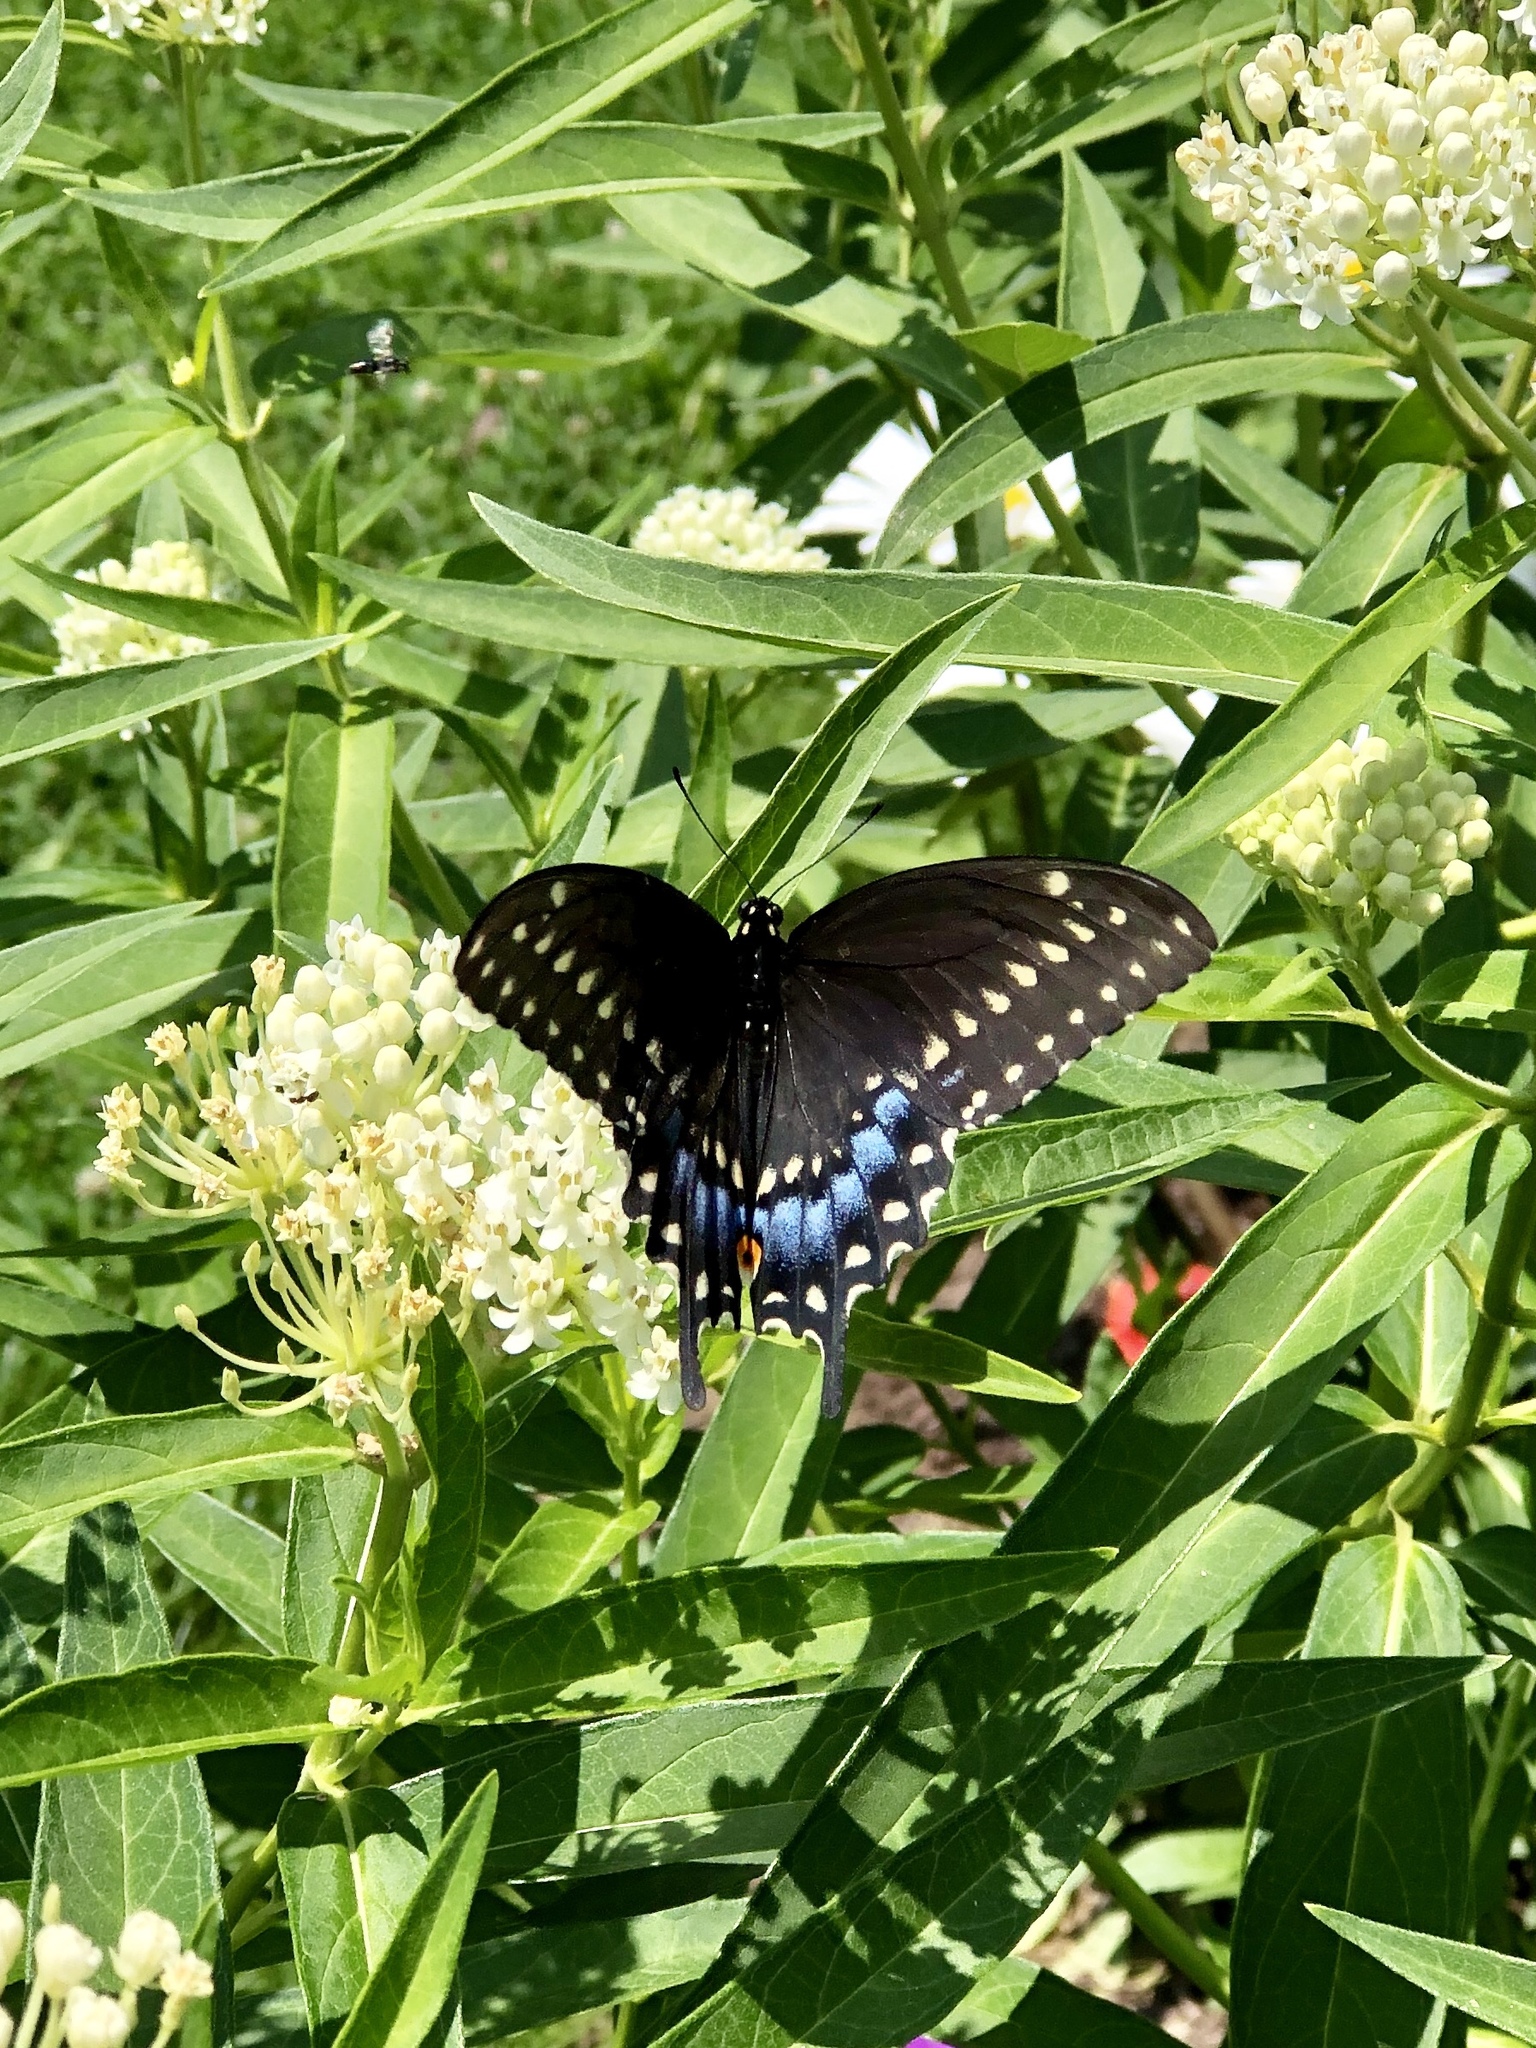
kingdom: Animalia
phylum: Arthropoda
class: Insecta
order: Lepidoptera
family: Papilionidae
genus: Papilio
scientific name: Papilio polyxenes
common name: Black swallowtail
